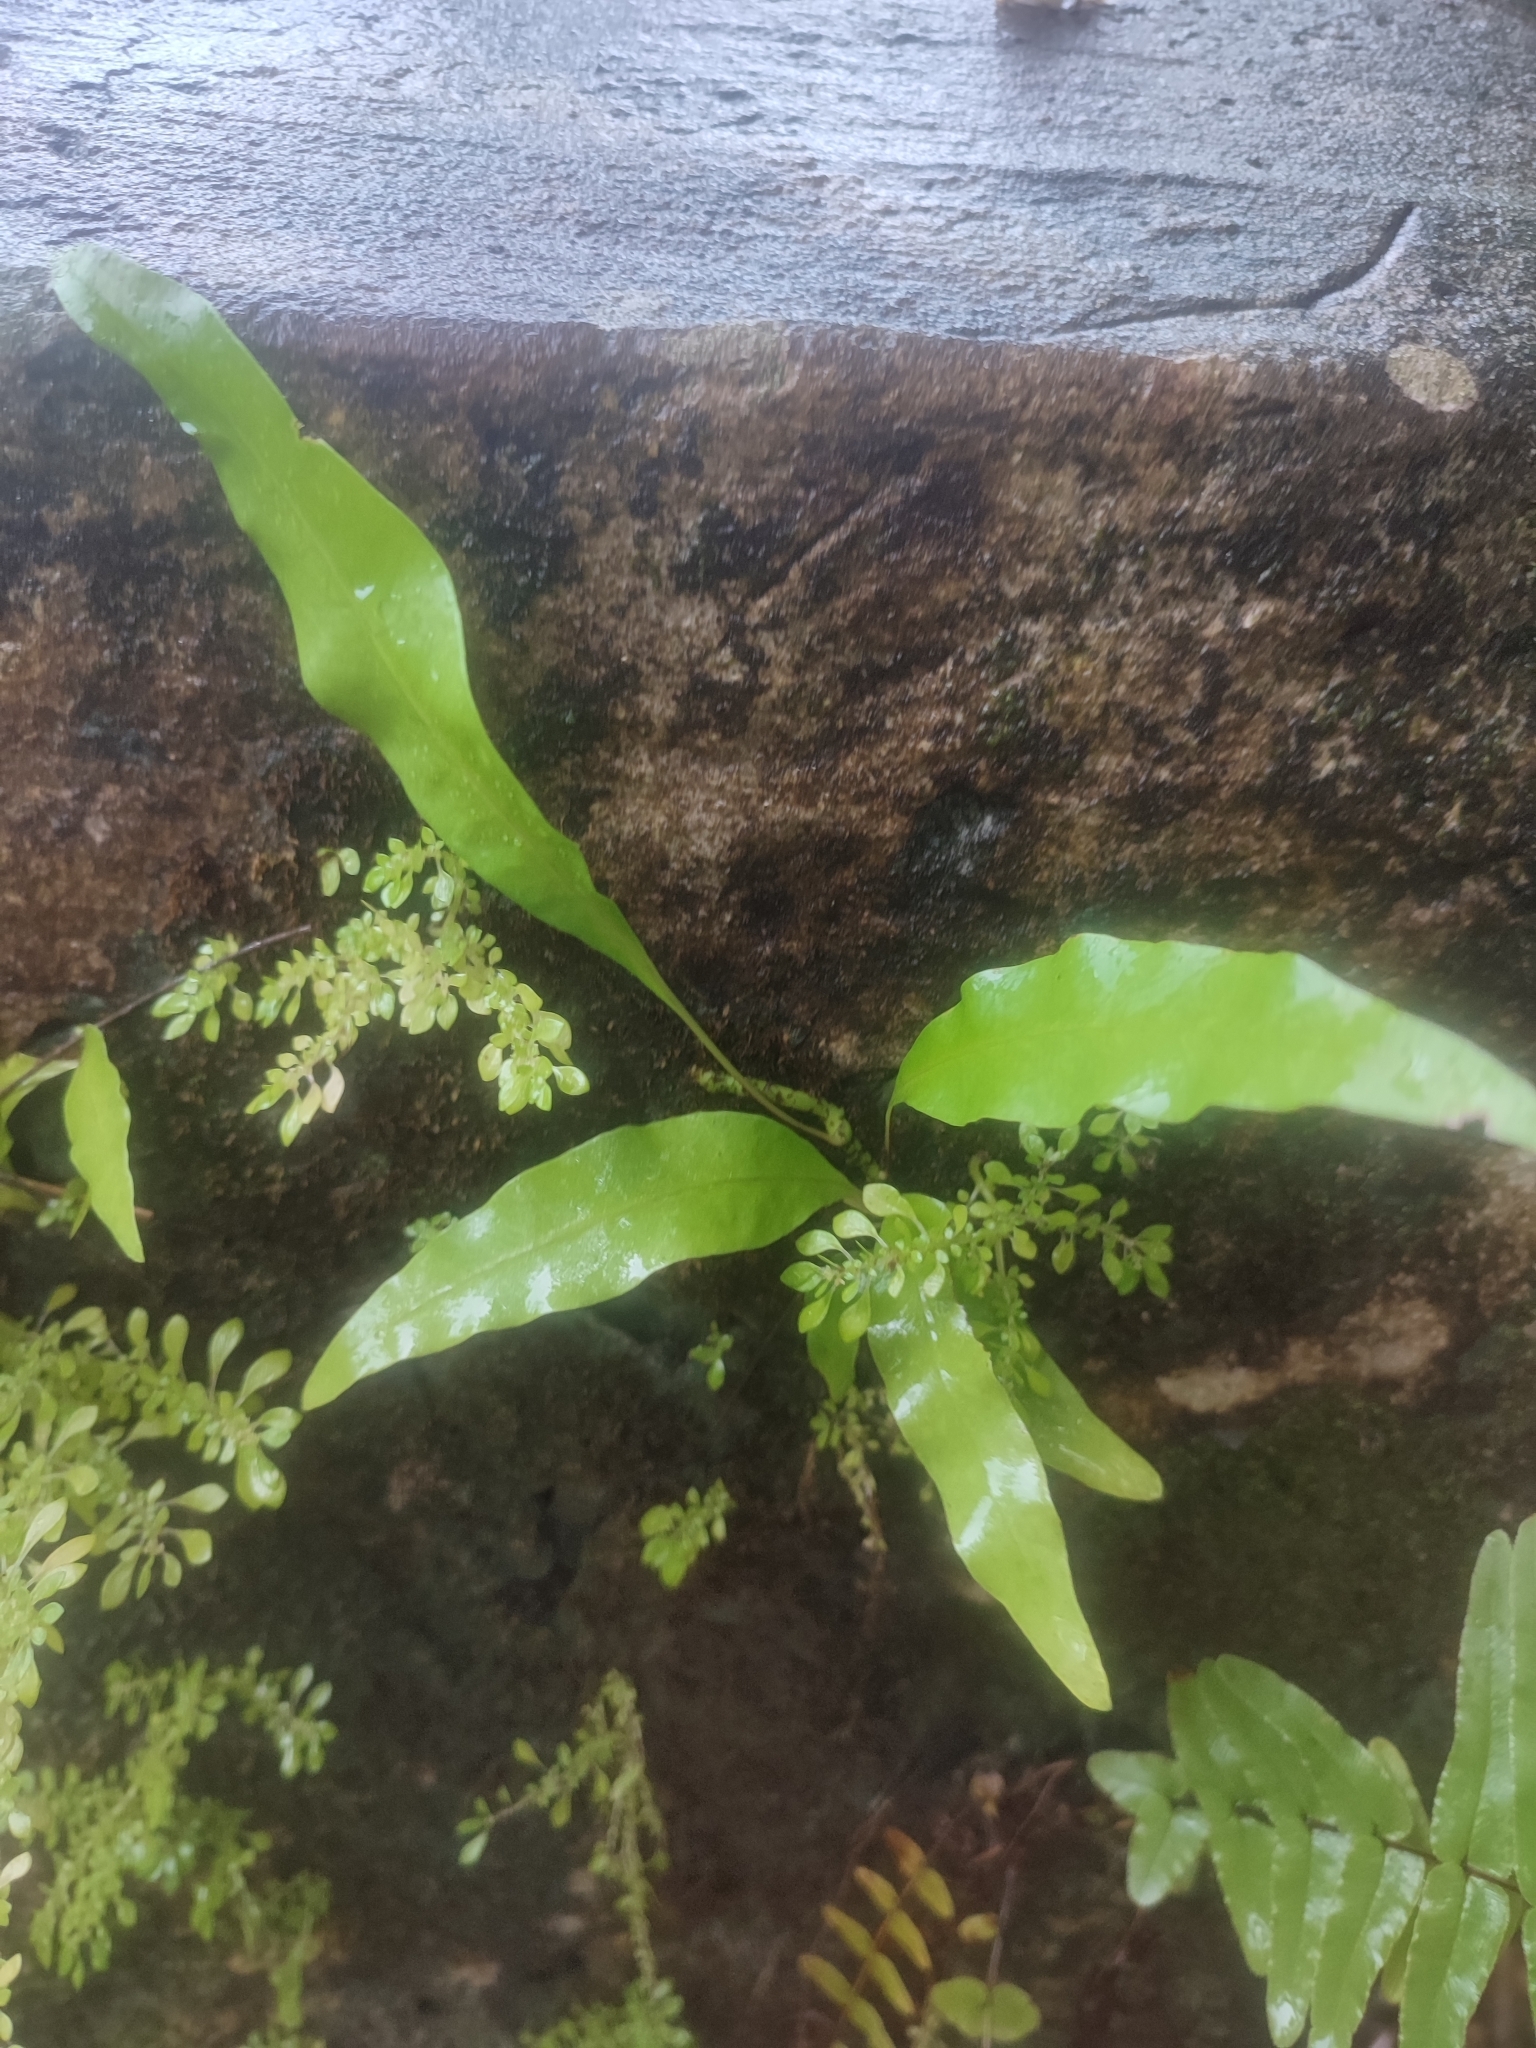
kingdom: Plantae
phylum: Tracheophyta
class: Polypodiopsida
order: Polypodiales
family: Polypodiaceae
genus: Microsorum
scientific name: Microsorum scolopendria
